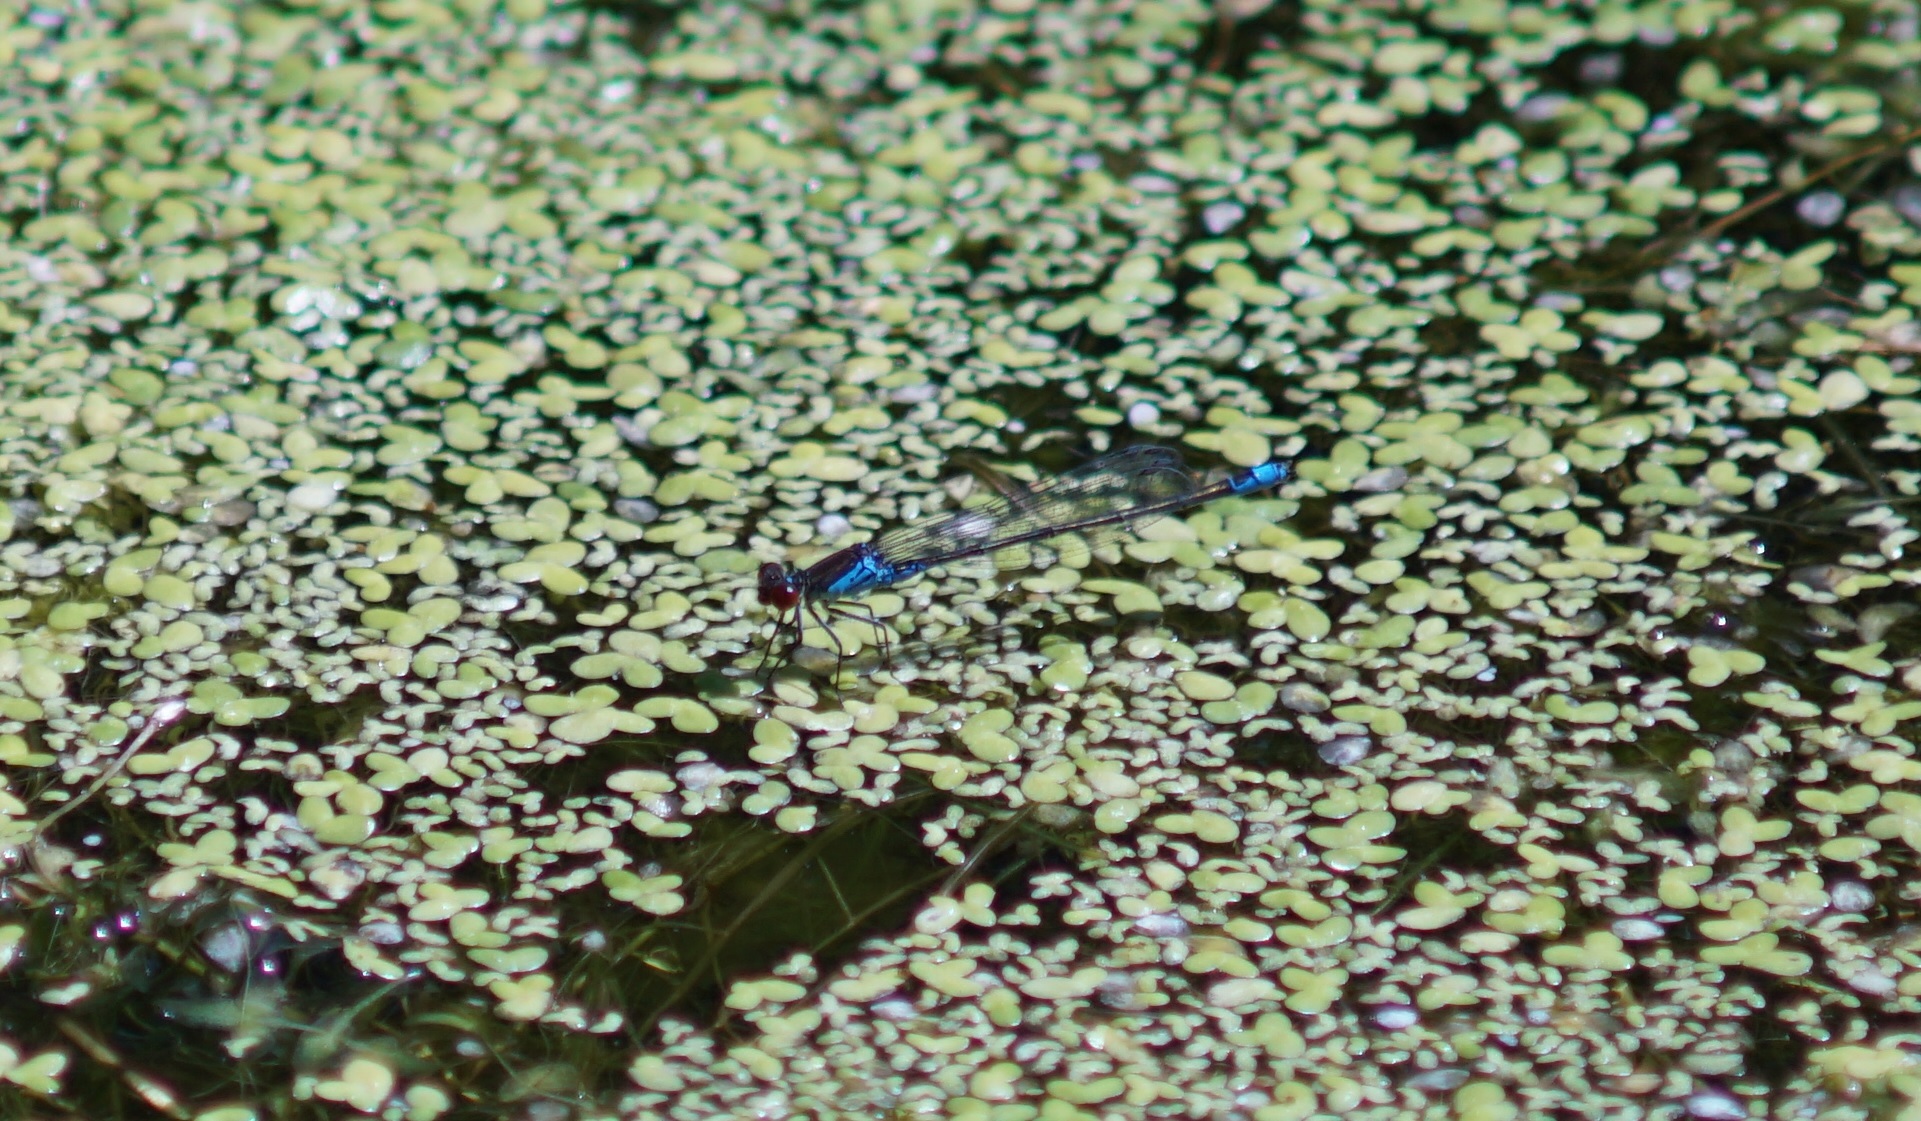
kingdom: Animalia
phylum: Arthropoda
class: Insecta
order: Odonata
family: Coenagrionidae
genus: Erythromma
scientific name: Erythromma viridulum
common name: Small red-eyed damselfly
